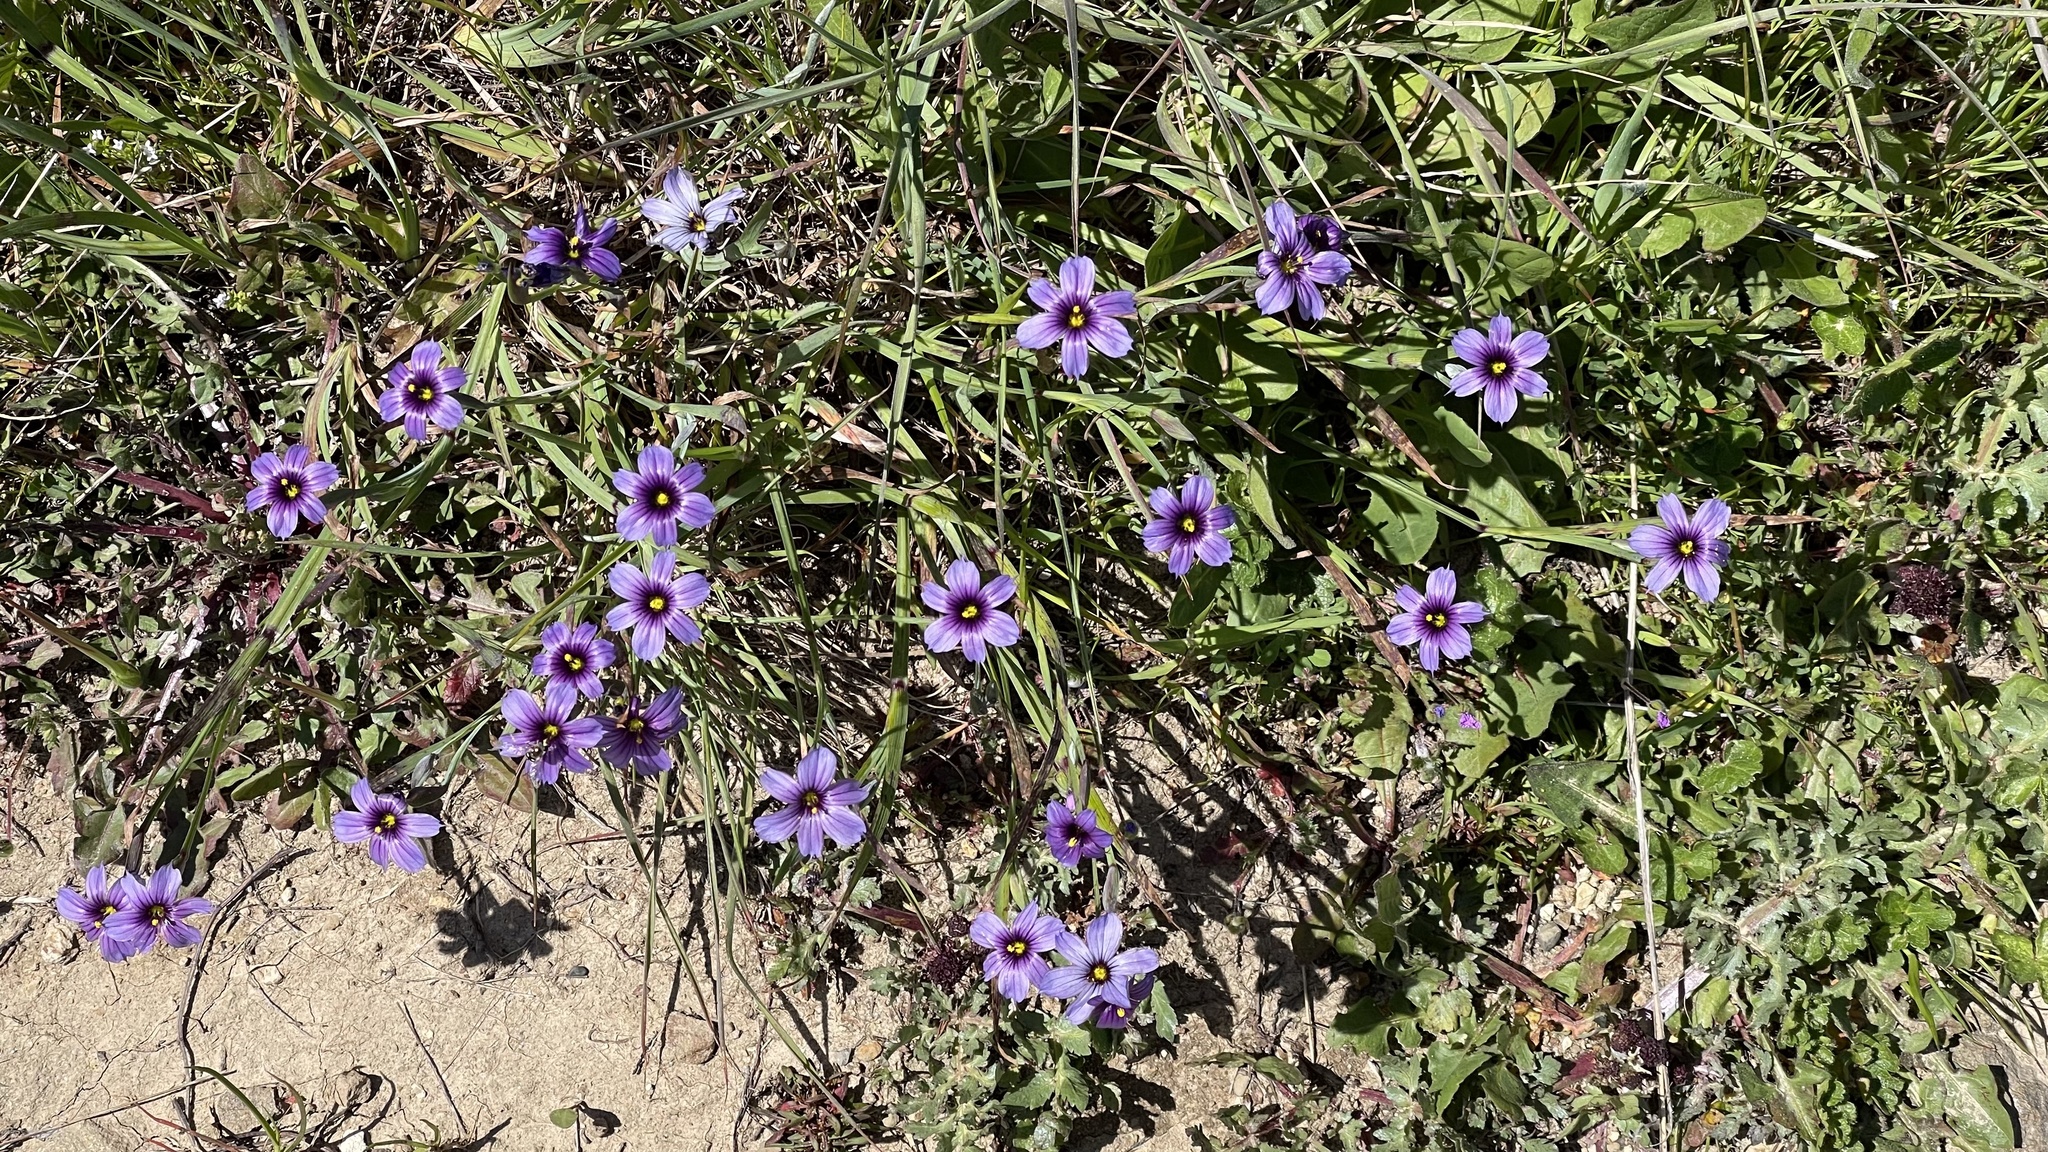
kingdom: Plantae
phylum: Tracheophyta
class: Liliopsida
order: Asparagales
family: Iridaceae
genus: Sisyrinchium
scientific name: Sisyrinchium bellum
